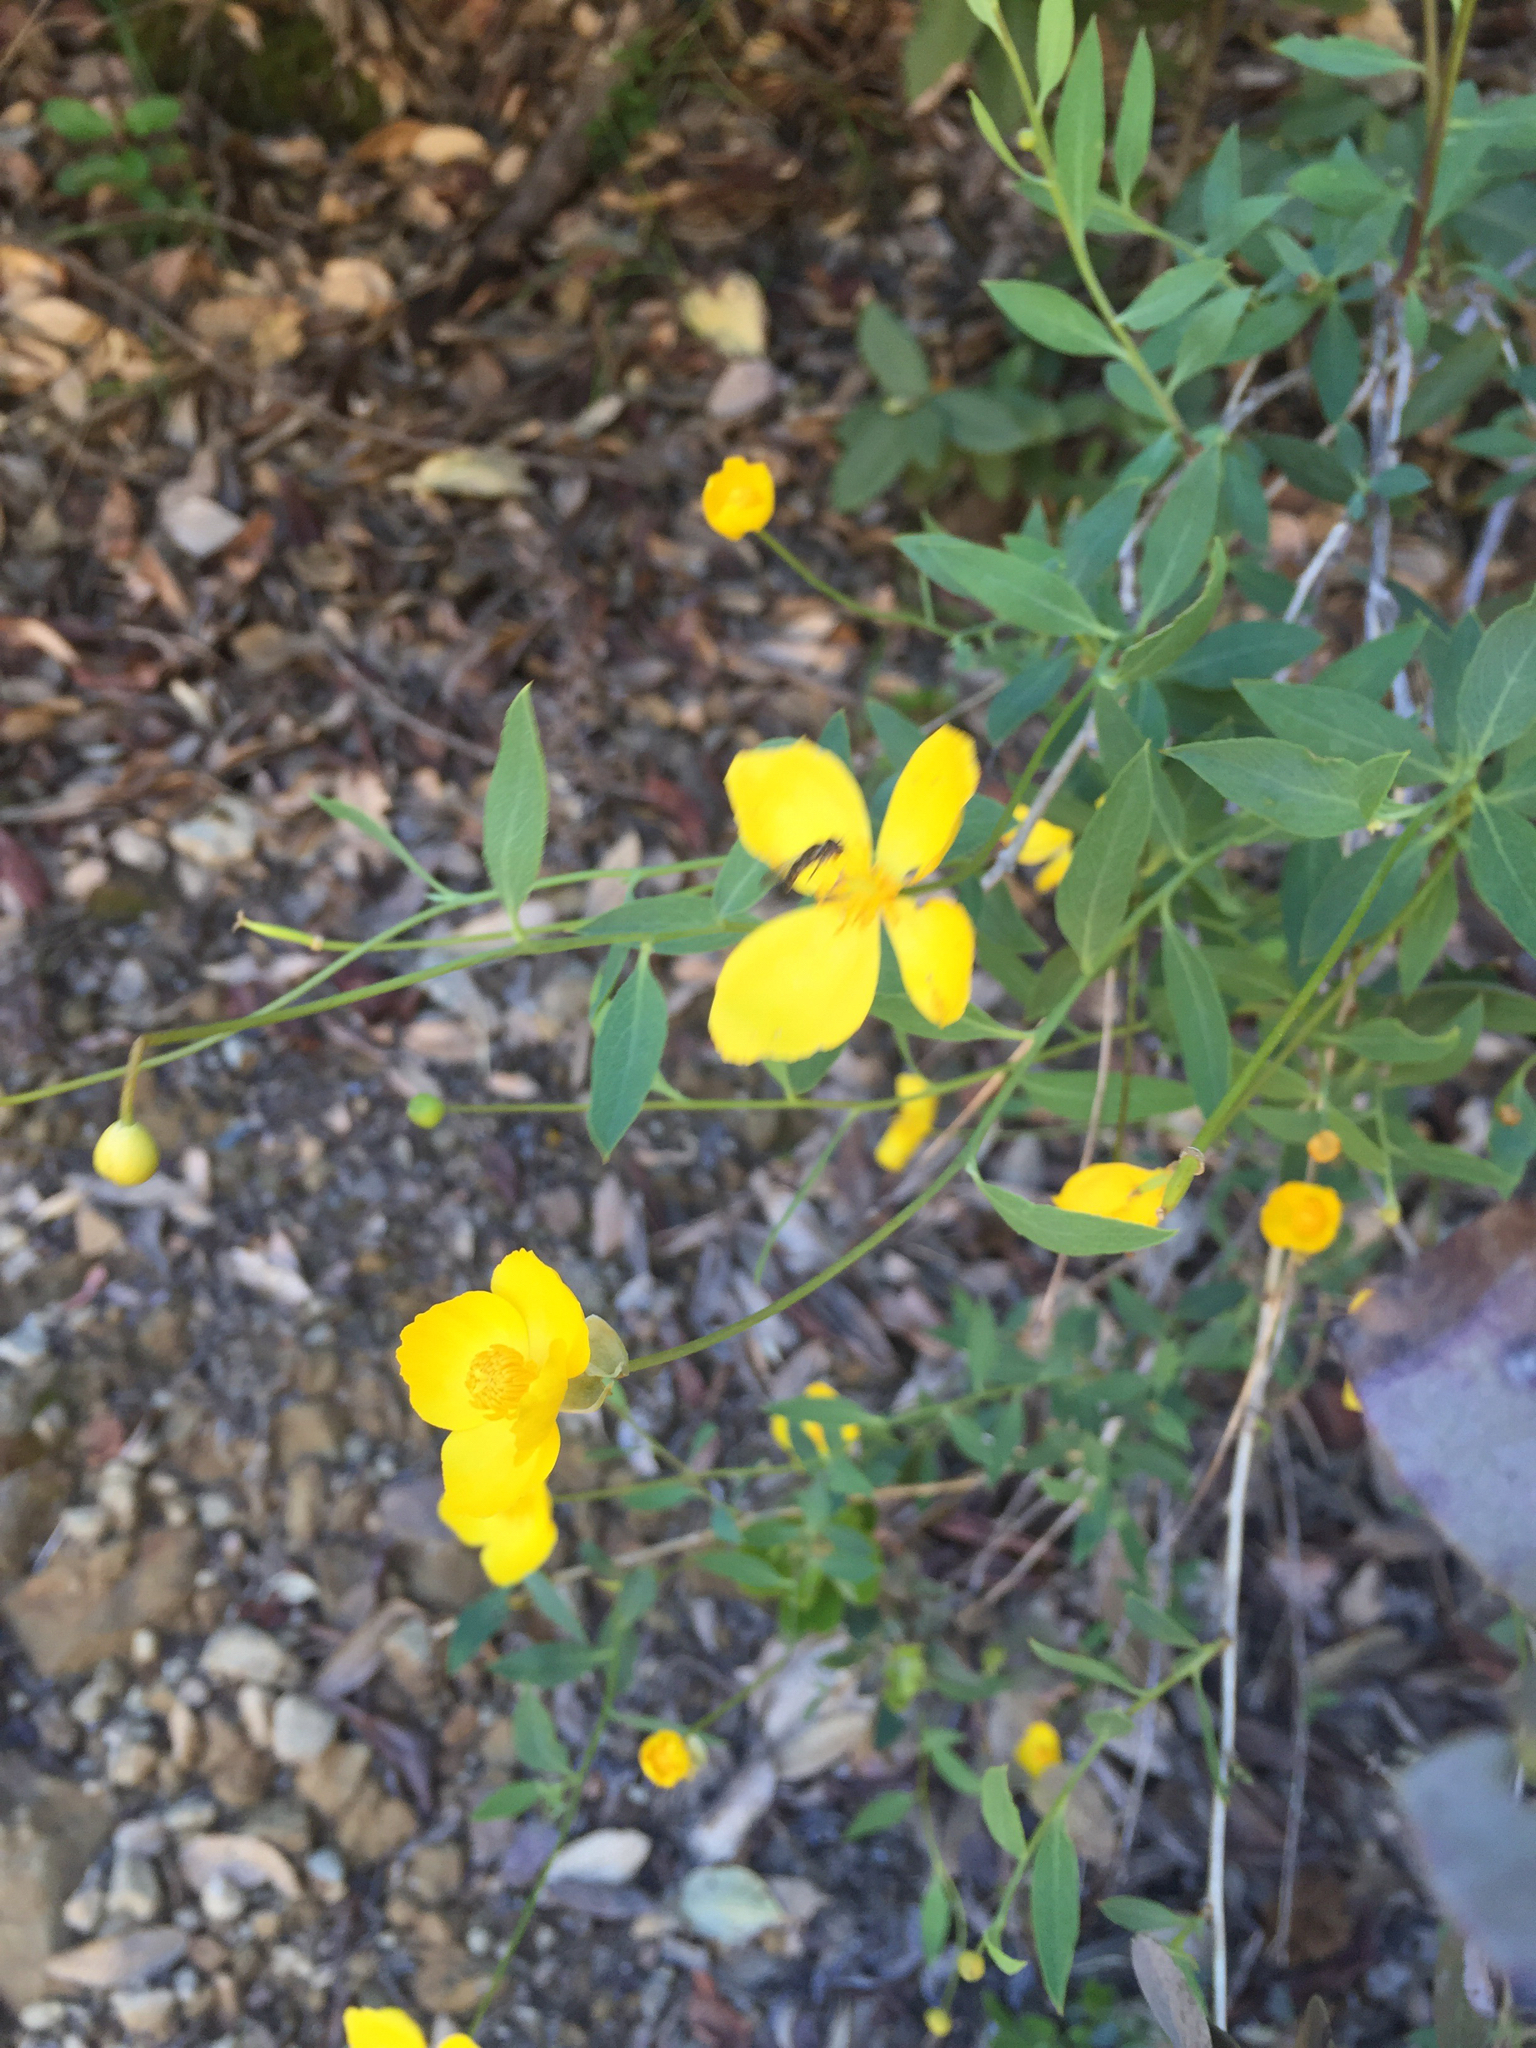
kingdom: Plantae
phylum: Tracheophyta
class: Magnoliopsida
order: Ranunculales
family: Papaveraceae
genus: Dendromecon
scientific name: Dendromecon rigida
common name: Tree poppy
